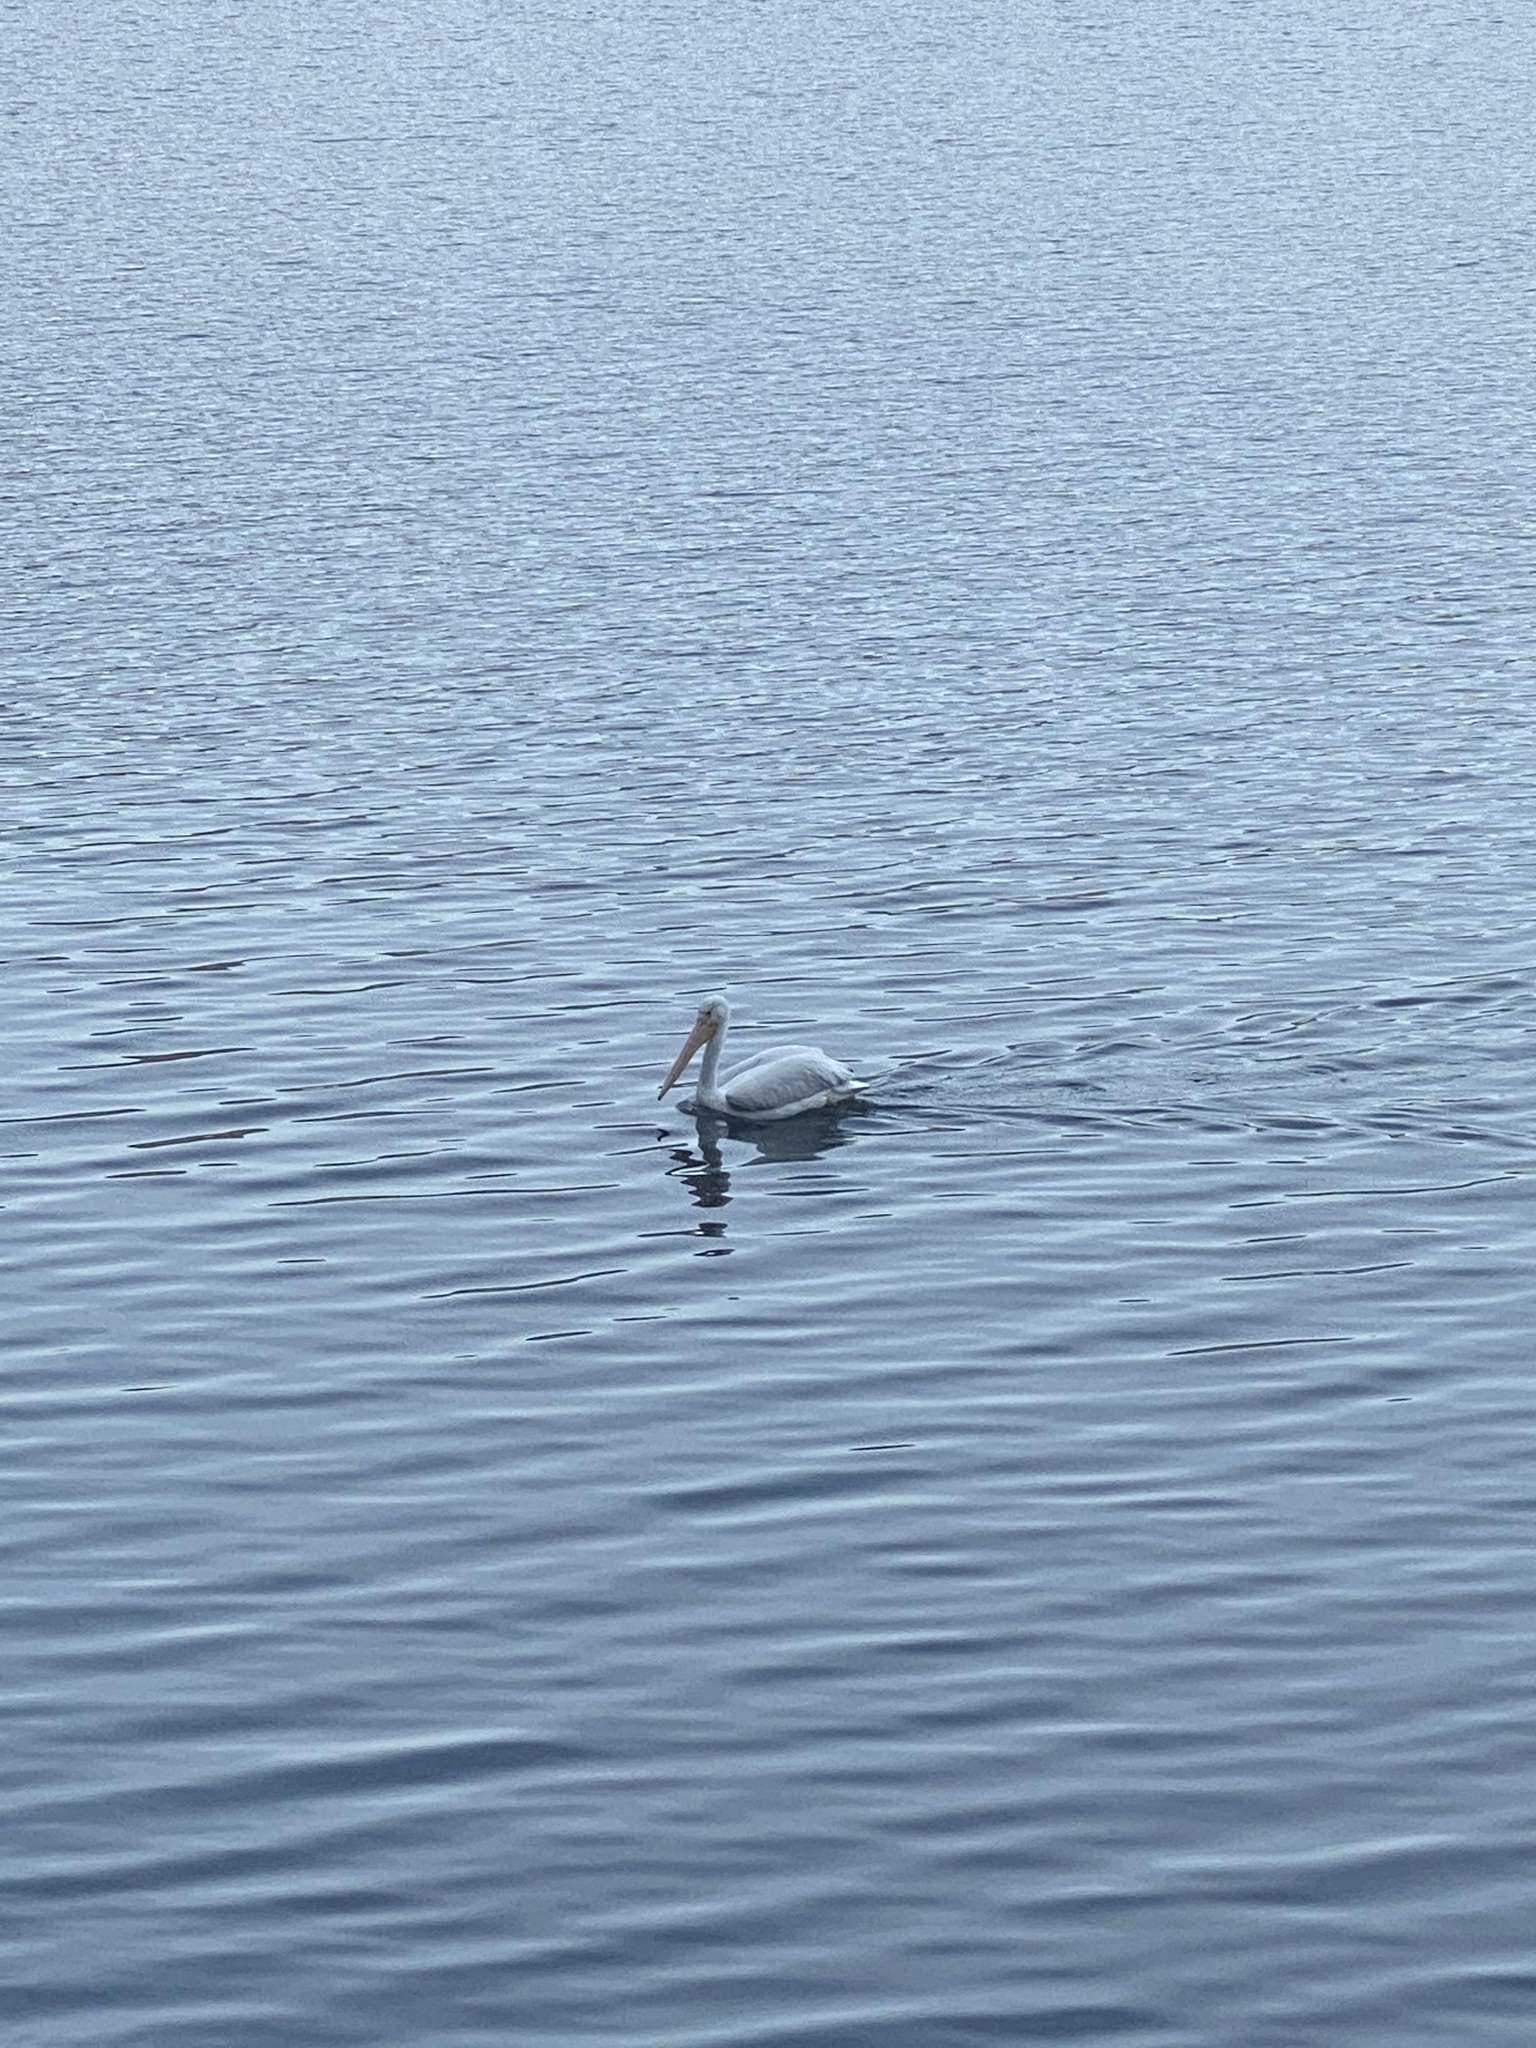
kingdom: Animalia
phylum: Chordata
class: Aves
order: Pelecaniformes
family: Pelecanidae
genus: Pelecanus
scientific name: Pelecanus erythrorhynchos
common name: American white pelican
